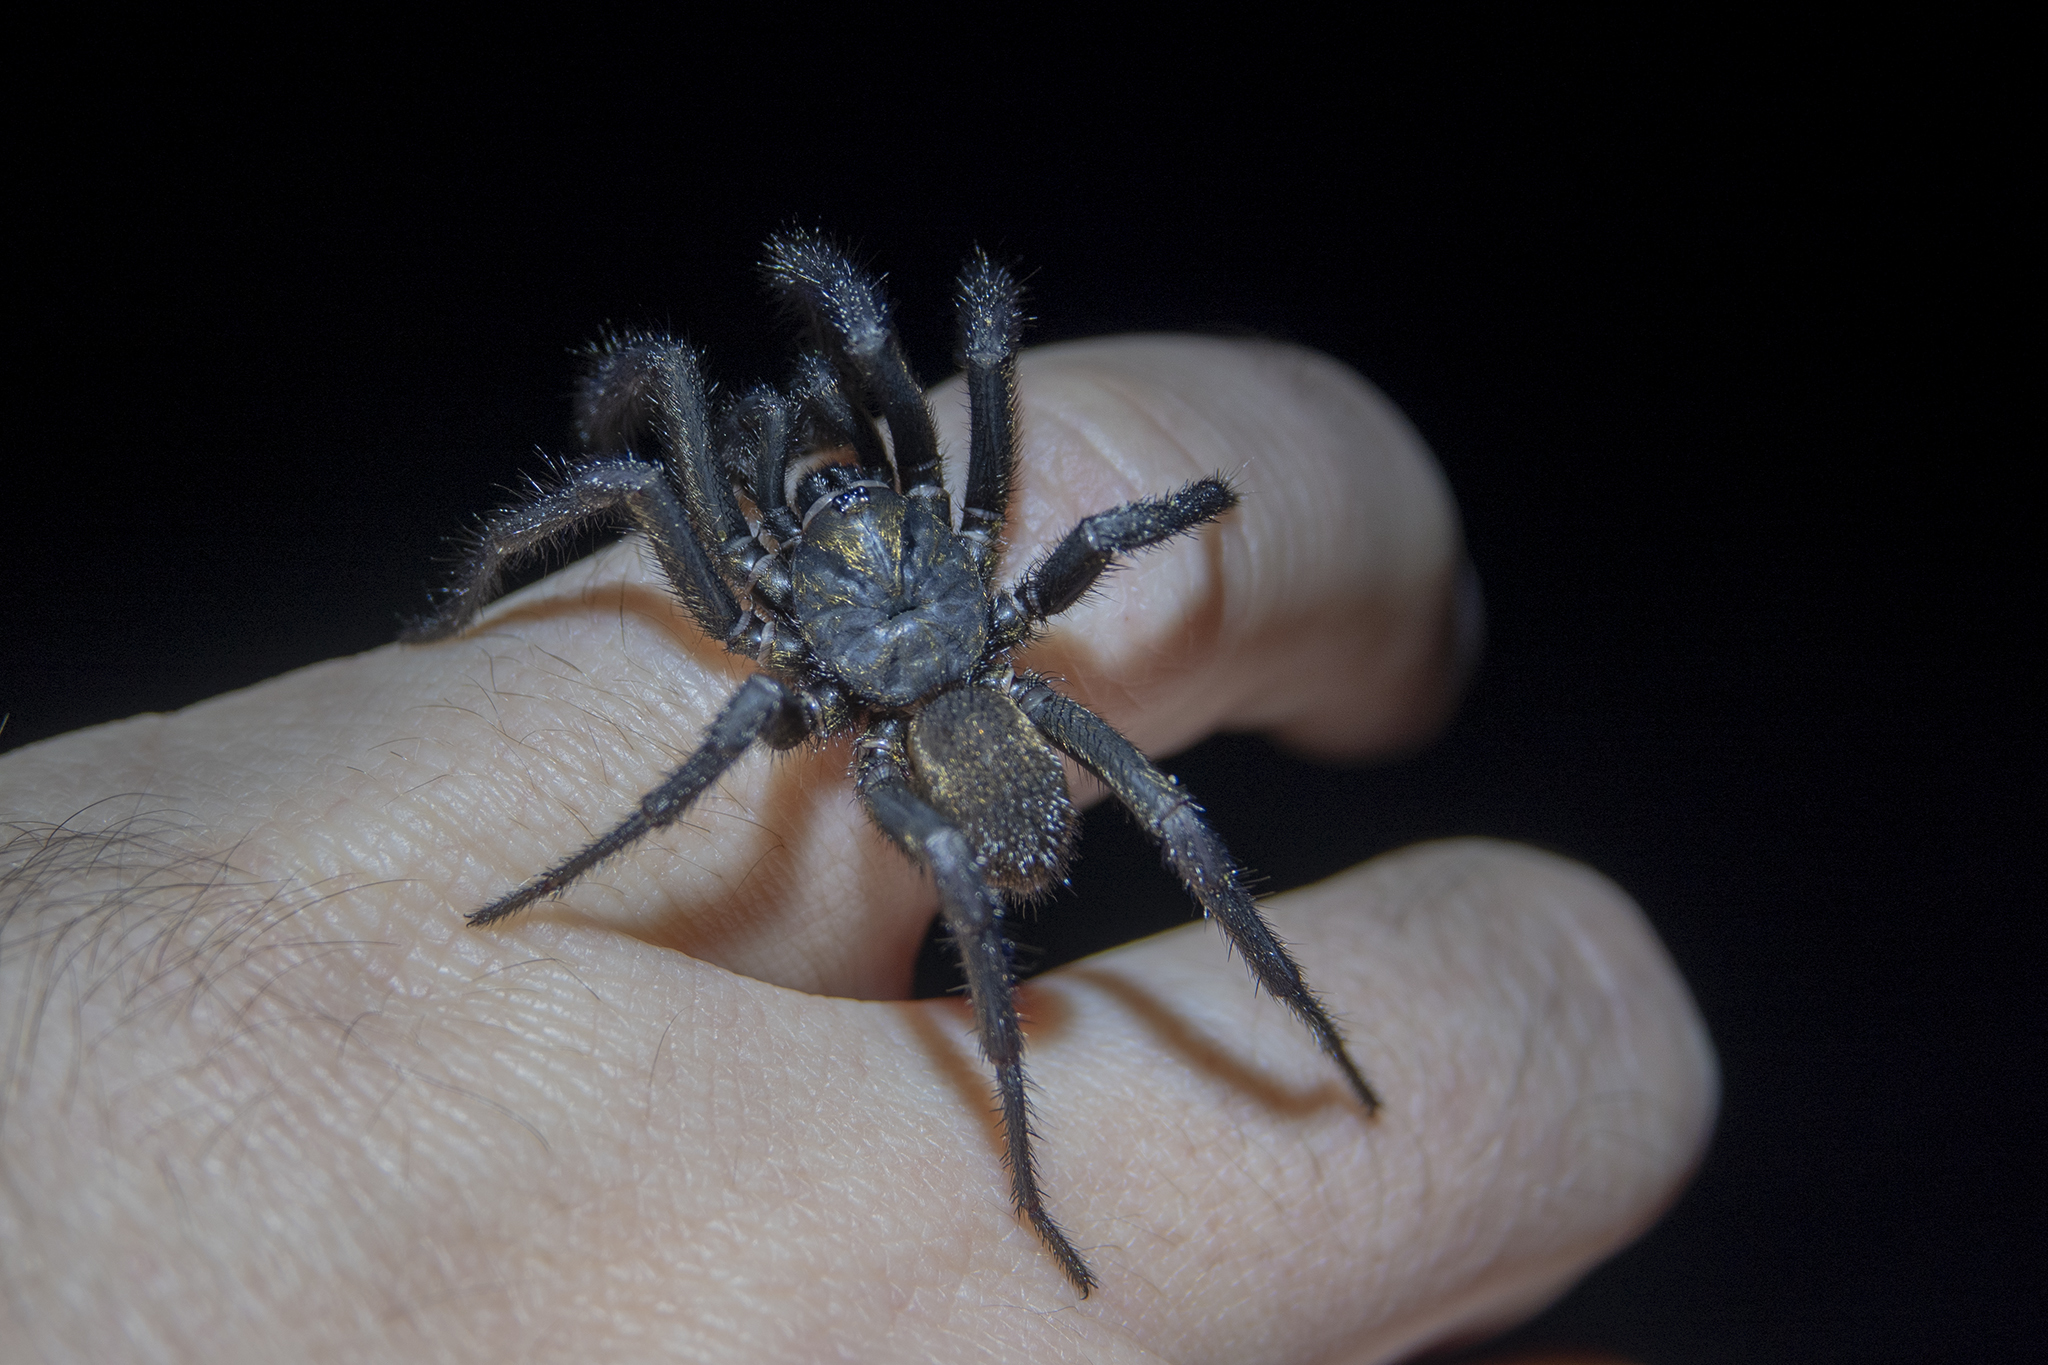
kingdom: Animalia
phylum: Arthropoda
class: Arachnida
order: Araneae
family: Idiopidae
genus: Cantuaria
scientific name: Cantuaria
